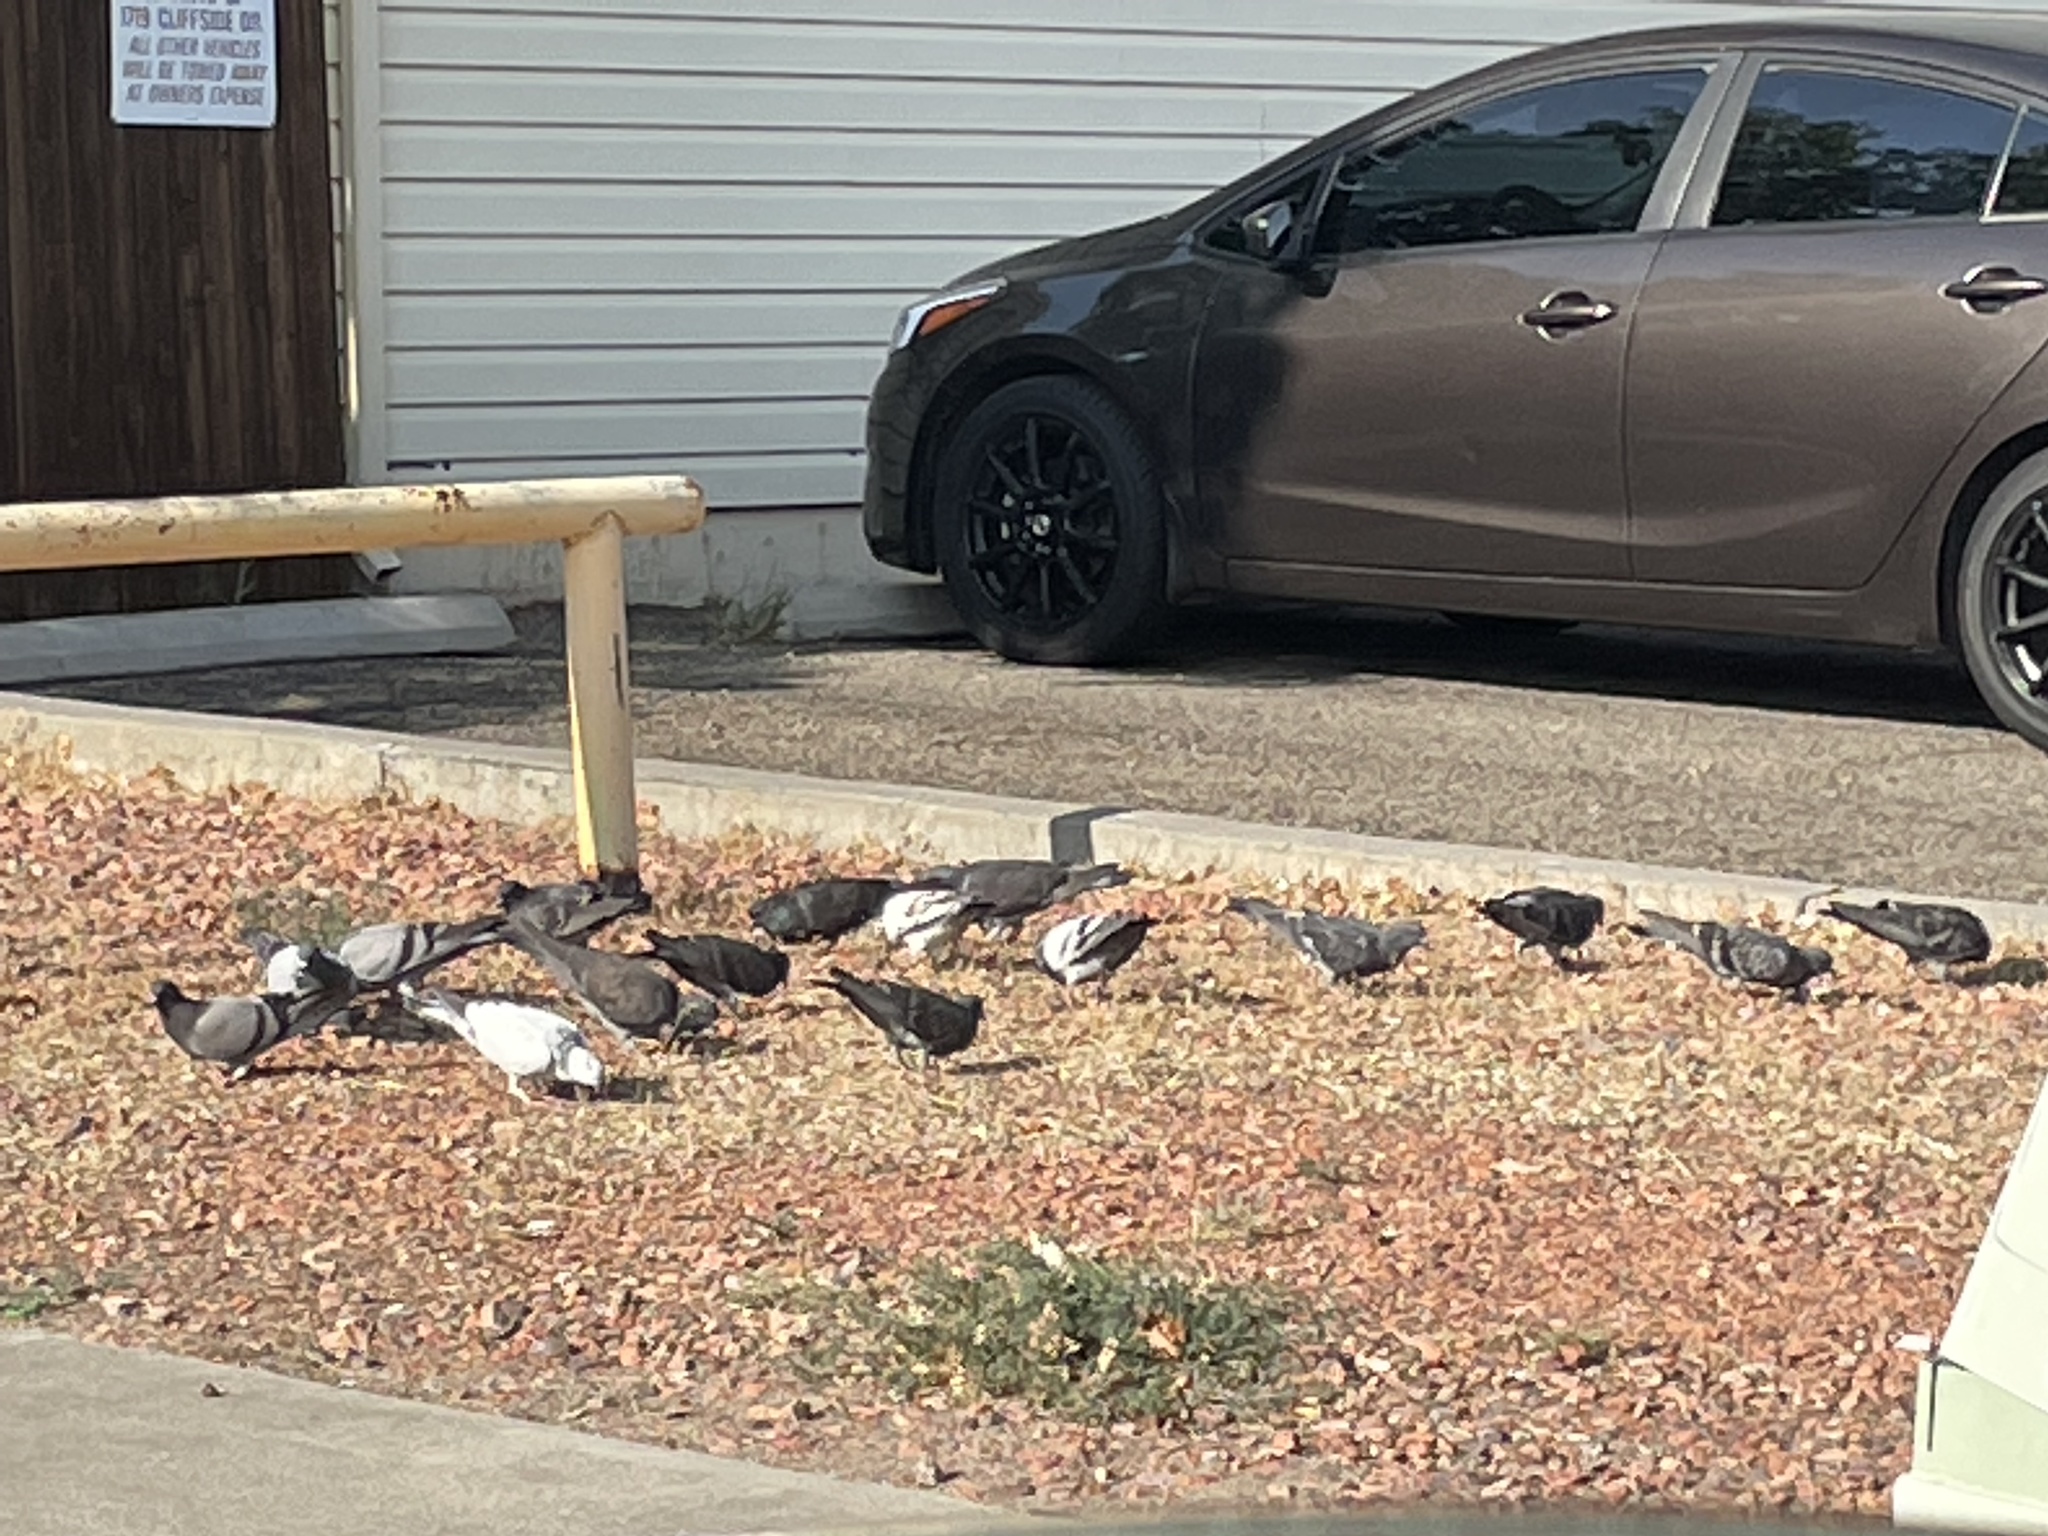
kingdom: Animalia
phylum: Chordata
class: Aves
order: Columbiformes
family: Columbidae
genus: Columba
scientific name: Columba livia
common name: Rock pigeon
